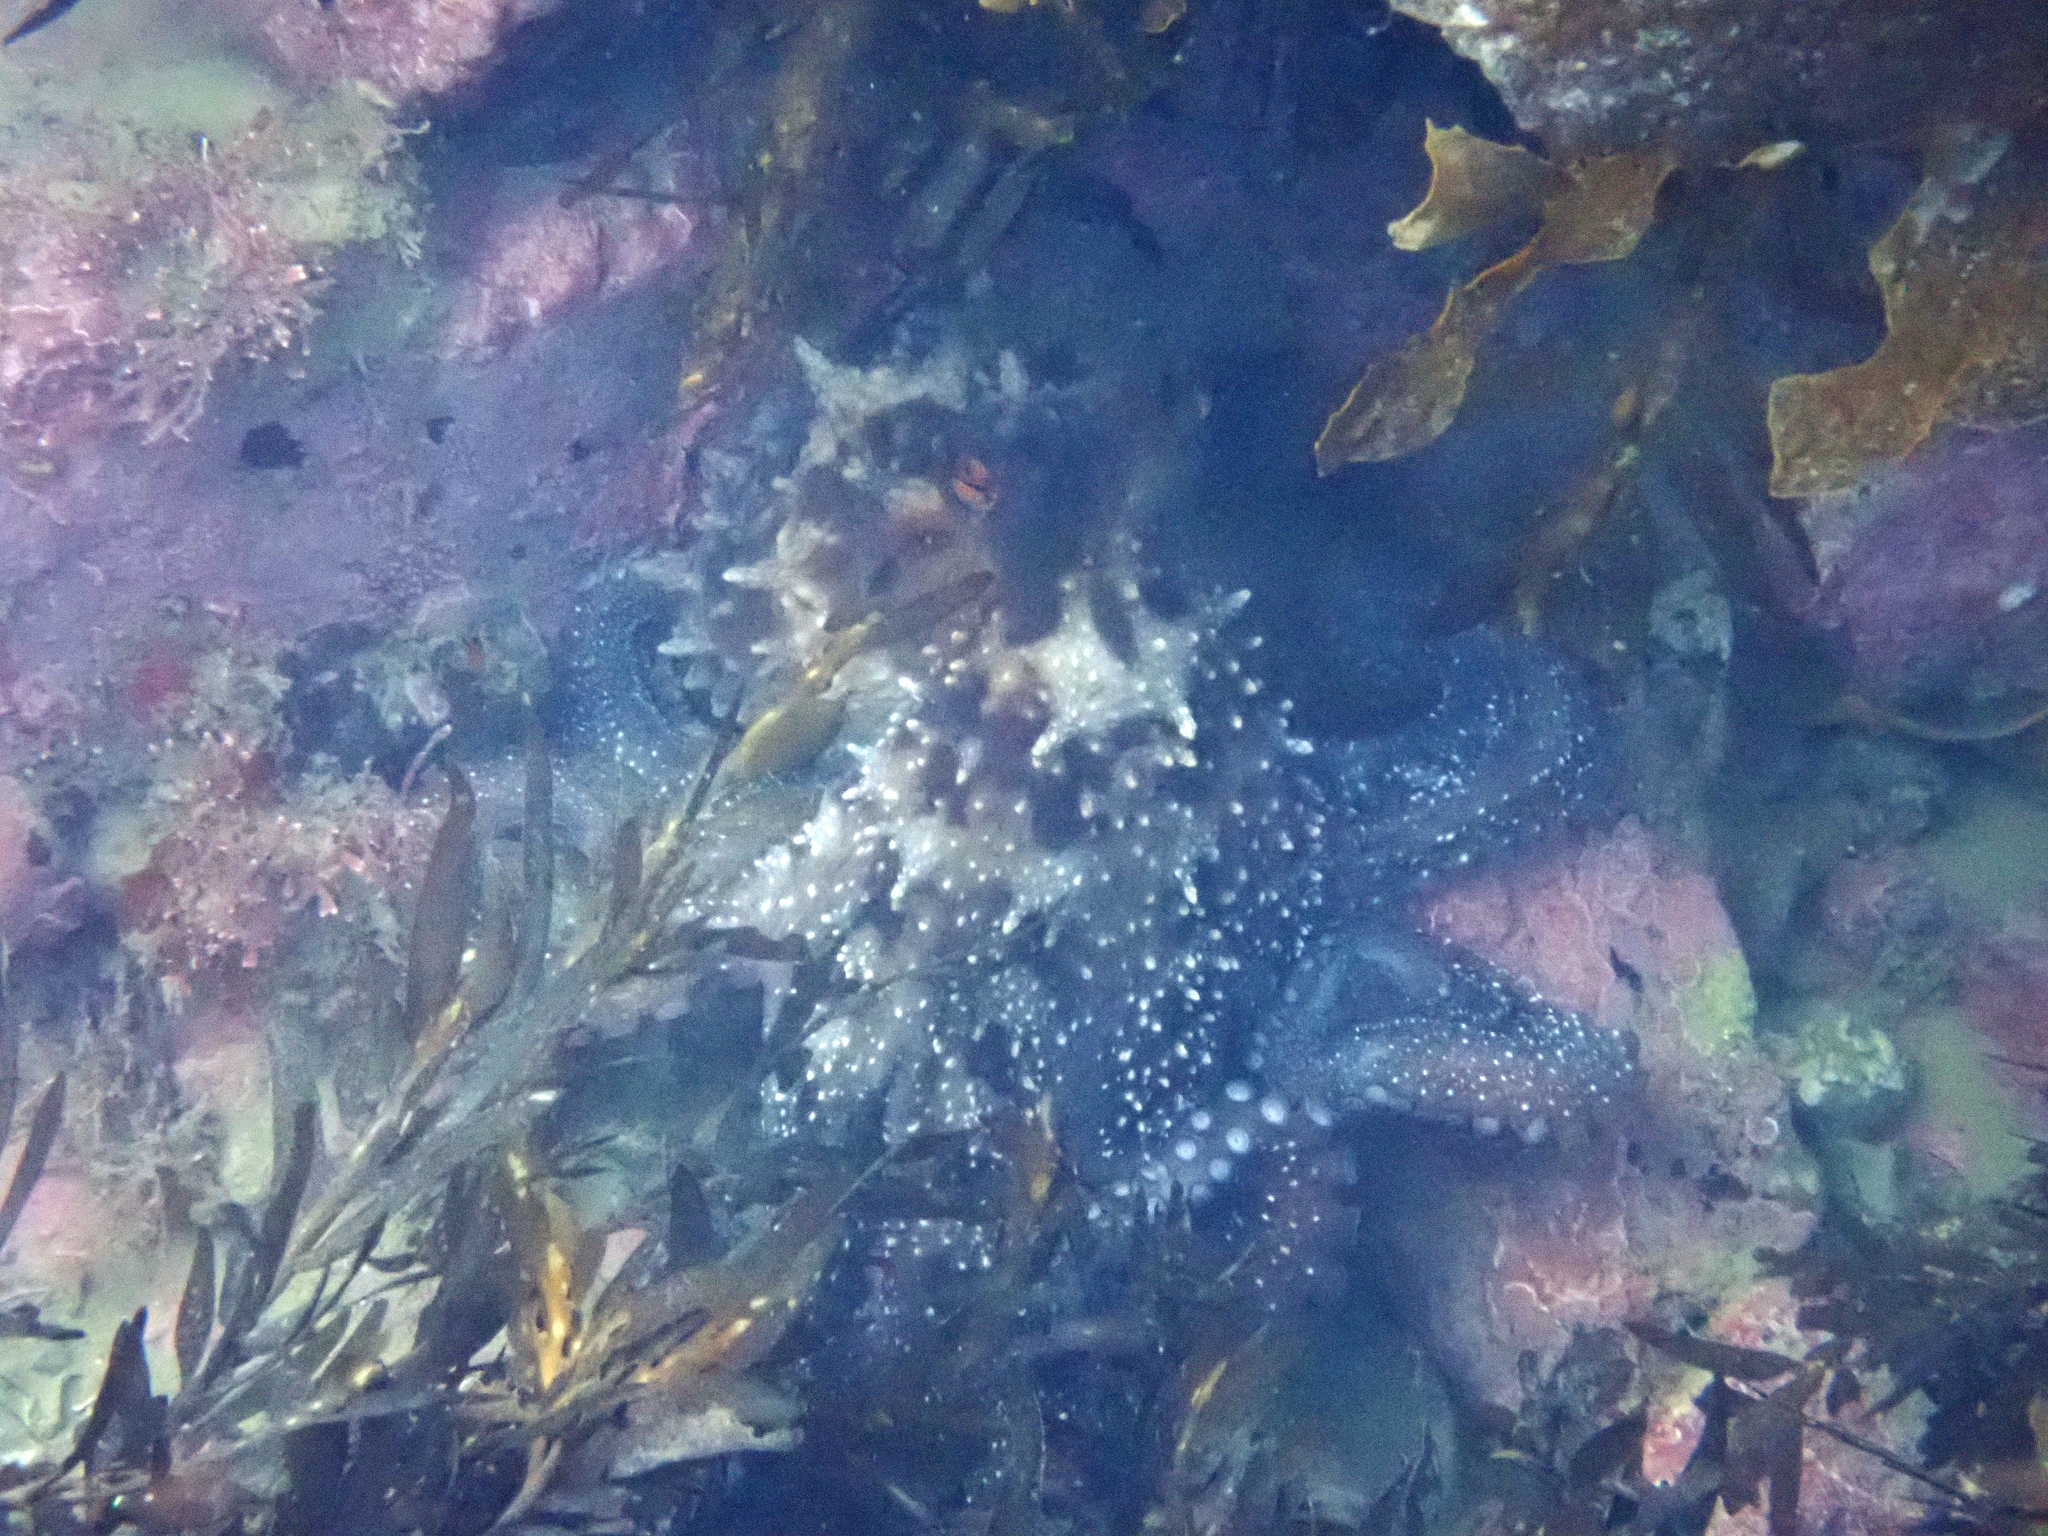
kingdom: Animalia
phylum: Mollusca
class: Cephalopoda
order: Octopoda
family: Octopodidae
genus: Macroctopus
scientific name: Macroctopus maorum
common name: Maori octopus
